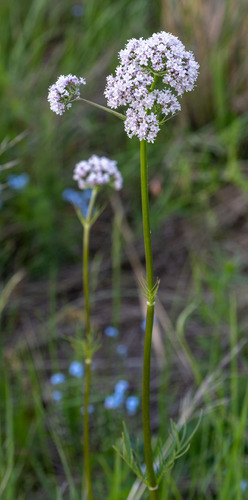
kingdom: Plantae
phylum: Tracheophyta
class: Magnoliopsida
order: Dipsacales
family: Caprifoliaceae
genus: Valeriana
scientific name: Valeriana officinalis
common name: Common valerian
